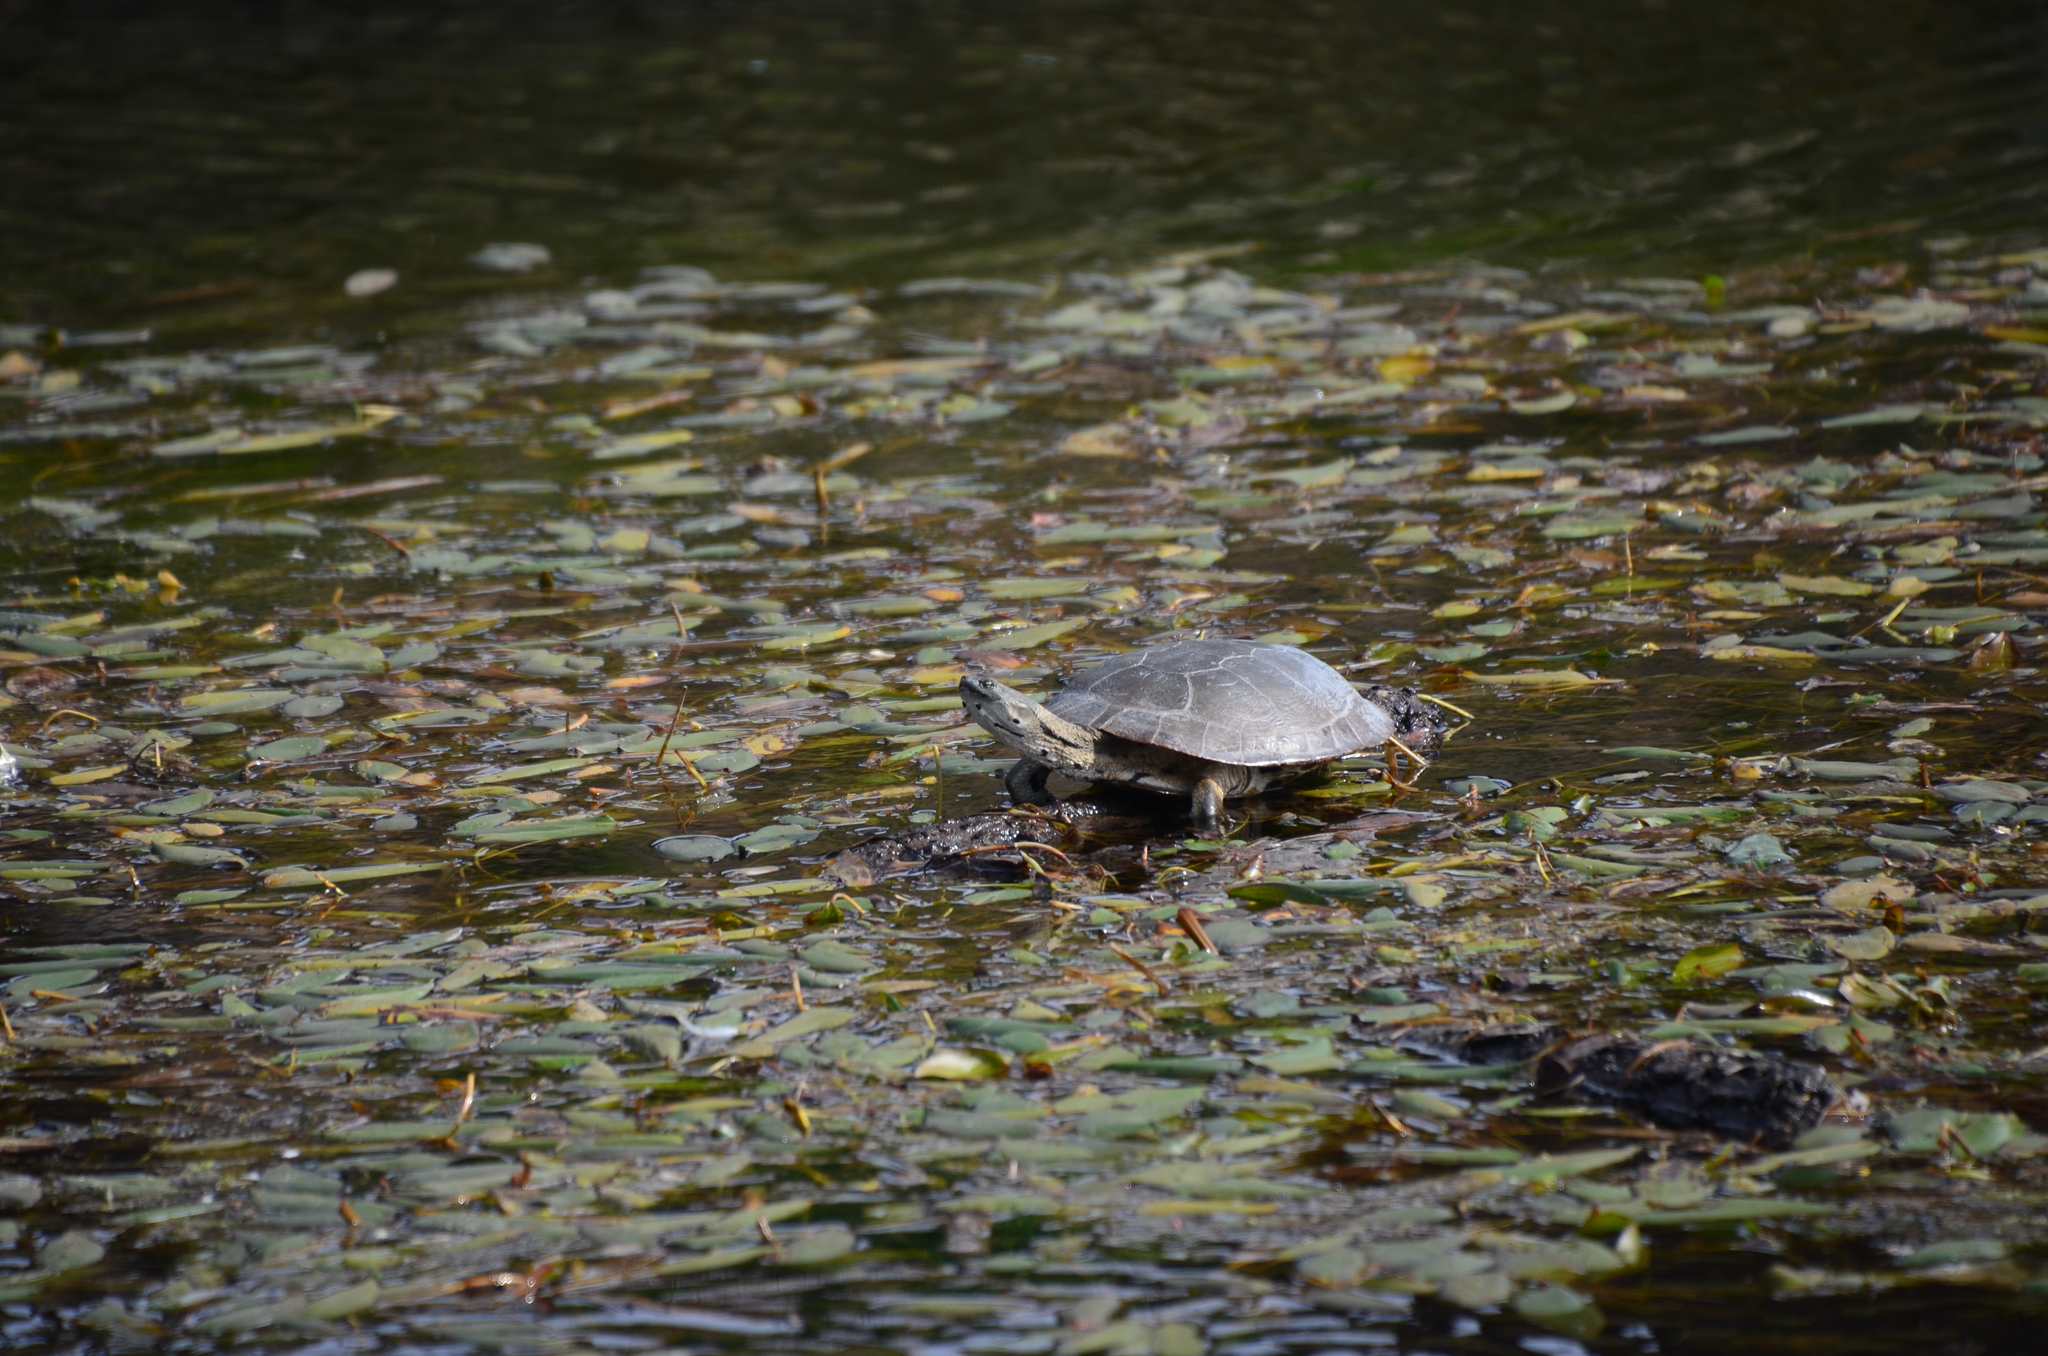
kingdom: Animalia
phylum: Chordata
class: Testudines
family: Chelidae
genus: Phrynops
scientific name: Phrynops hilarii
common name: Side-necked turtle of saint hillaire
